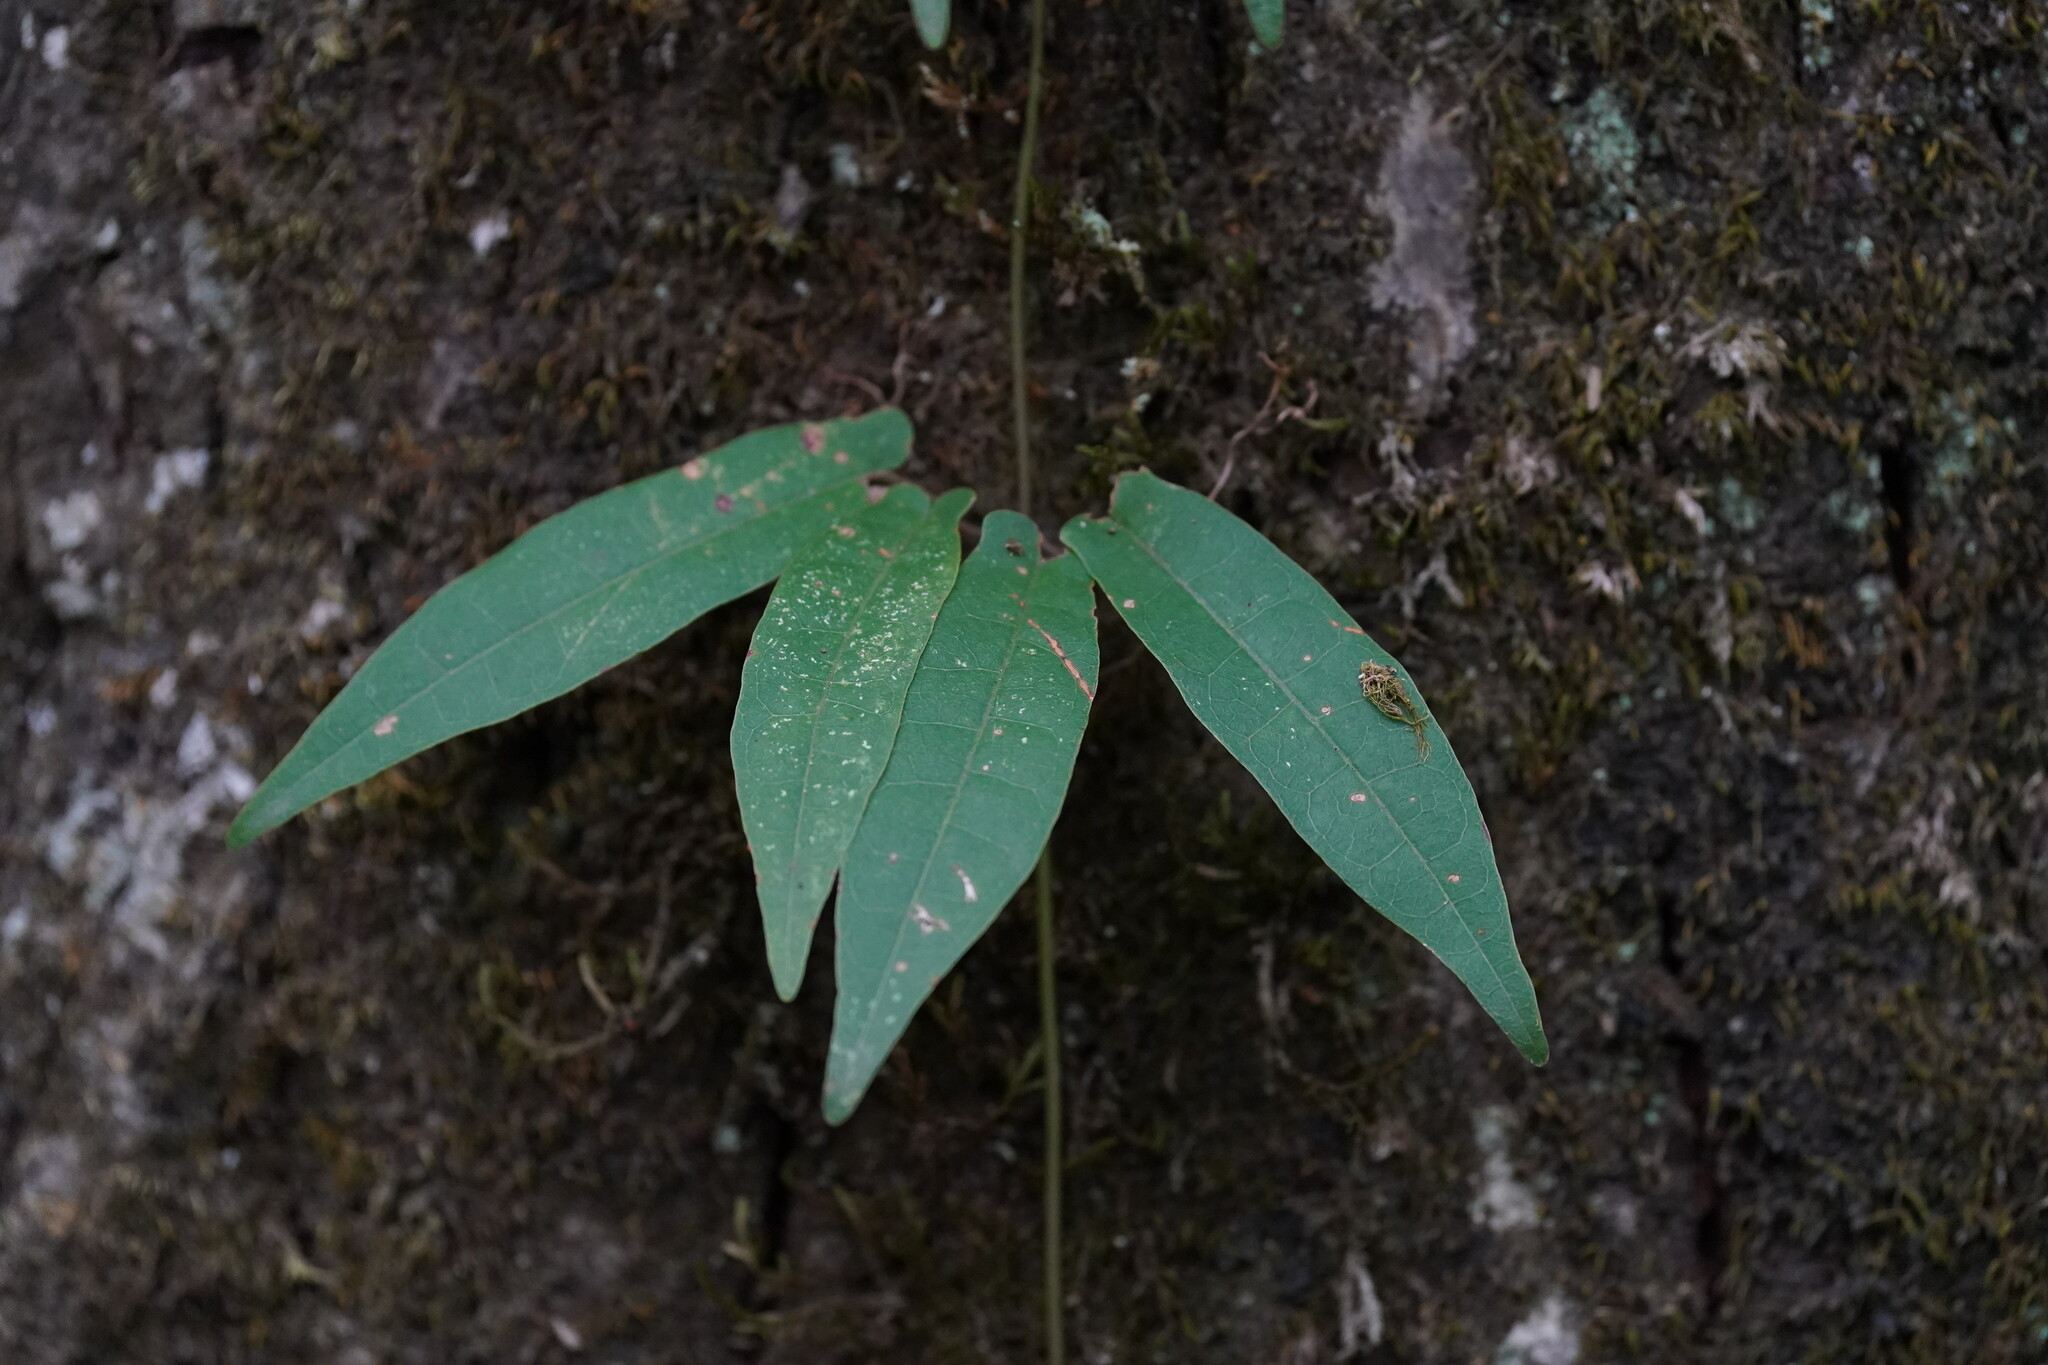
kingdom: Plantae
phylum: Tracheophyta
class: Magnoliopsida
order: Lamiales
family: Bignoniaceae
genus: Bignonia
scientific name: Bignonia capreolata
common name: Crossvine
